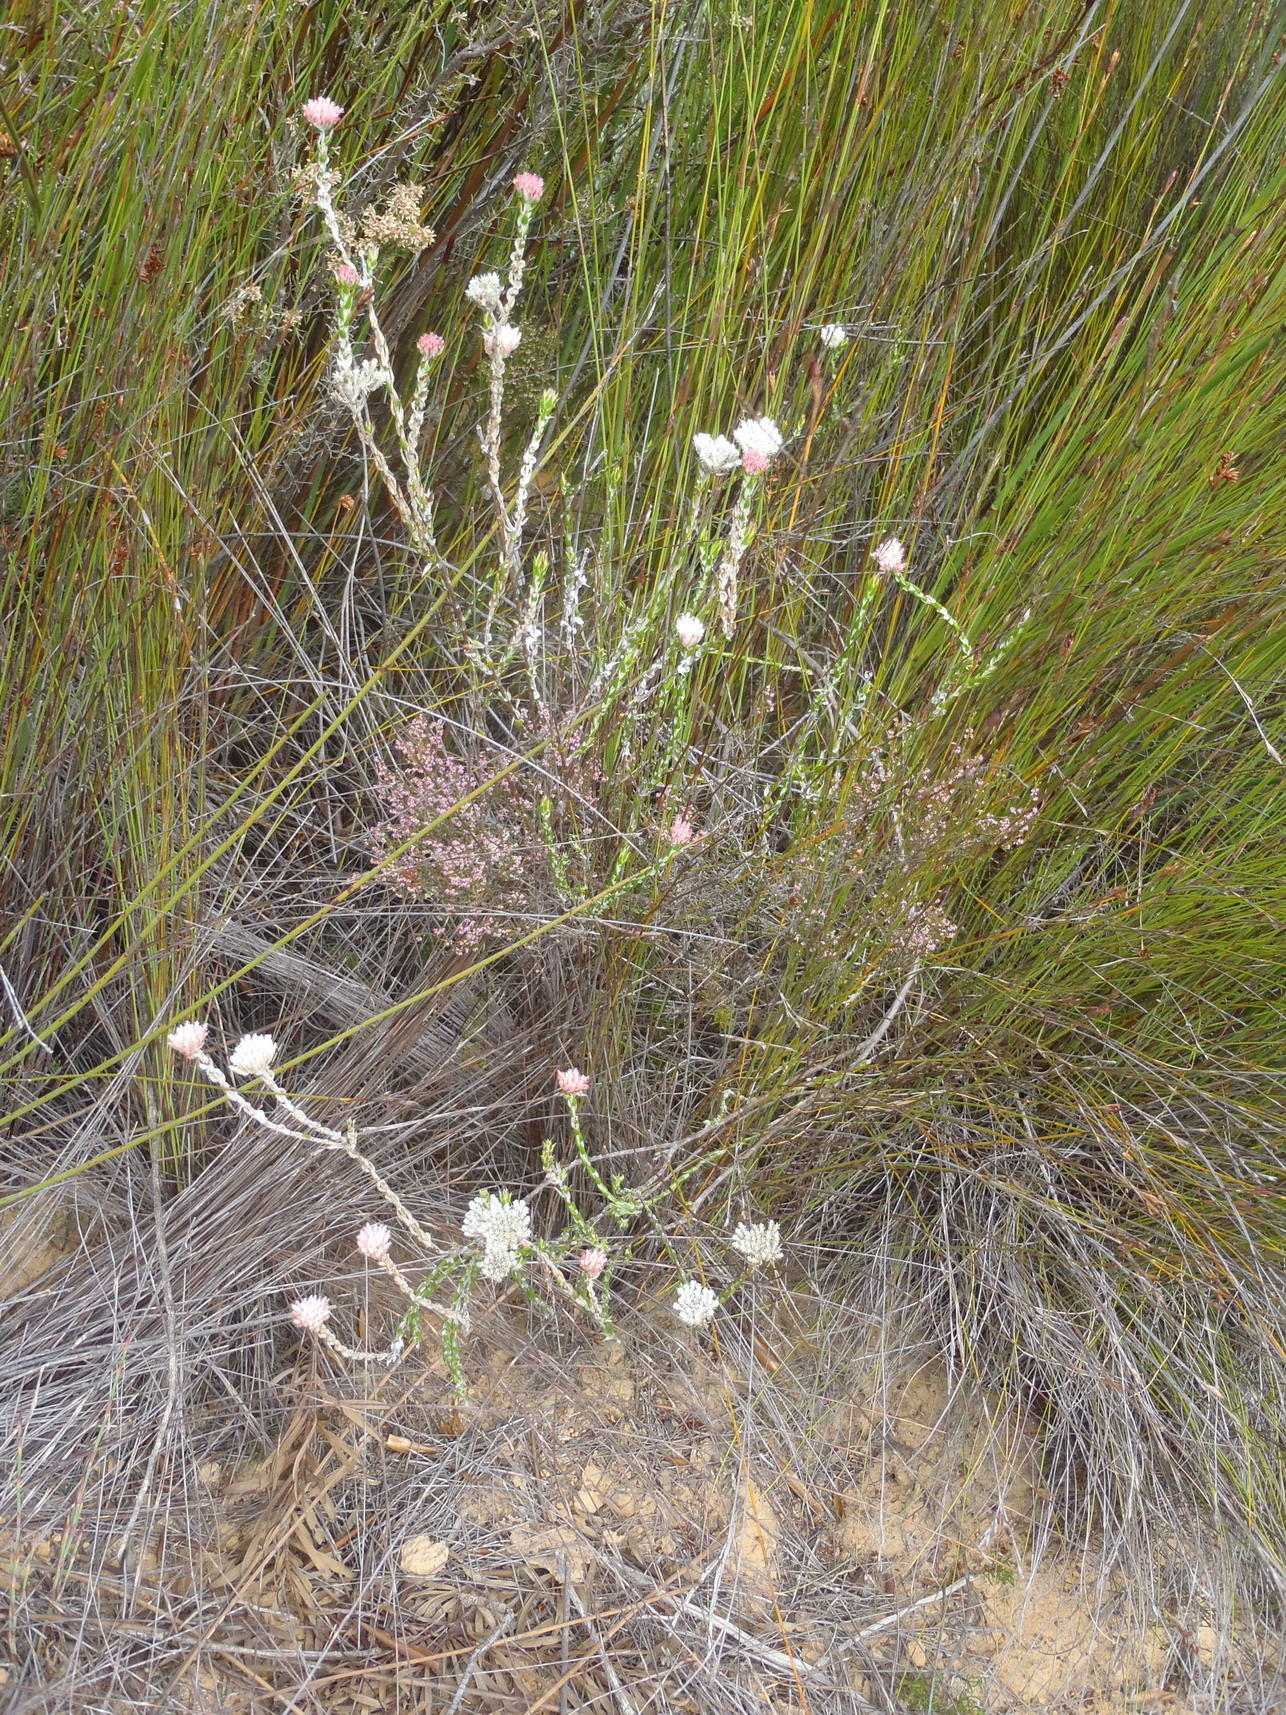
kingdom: Plantae
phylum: Tracheophyta
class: Magnoliopsida
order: Asterales
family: Asteraceae
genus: Metalasia
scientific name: Metalasia pulcherrima
